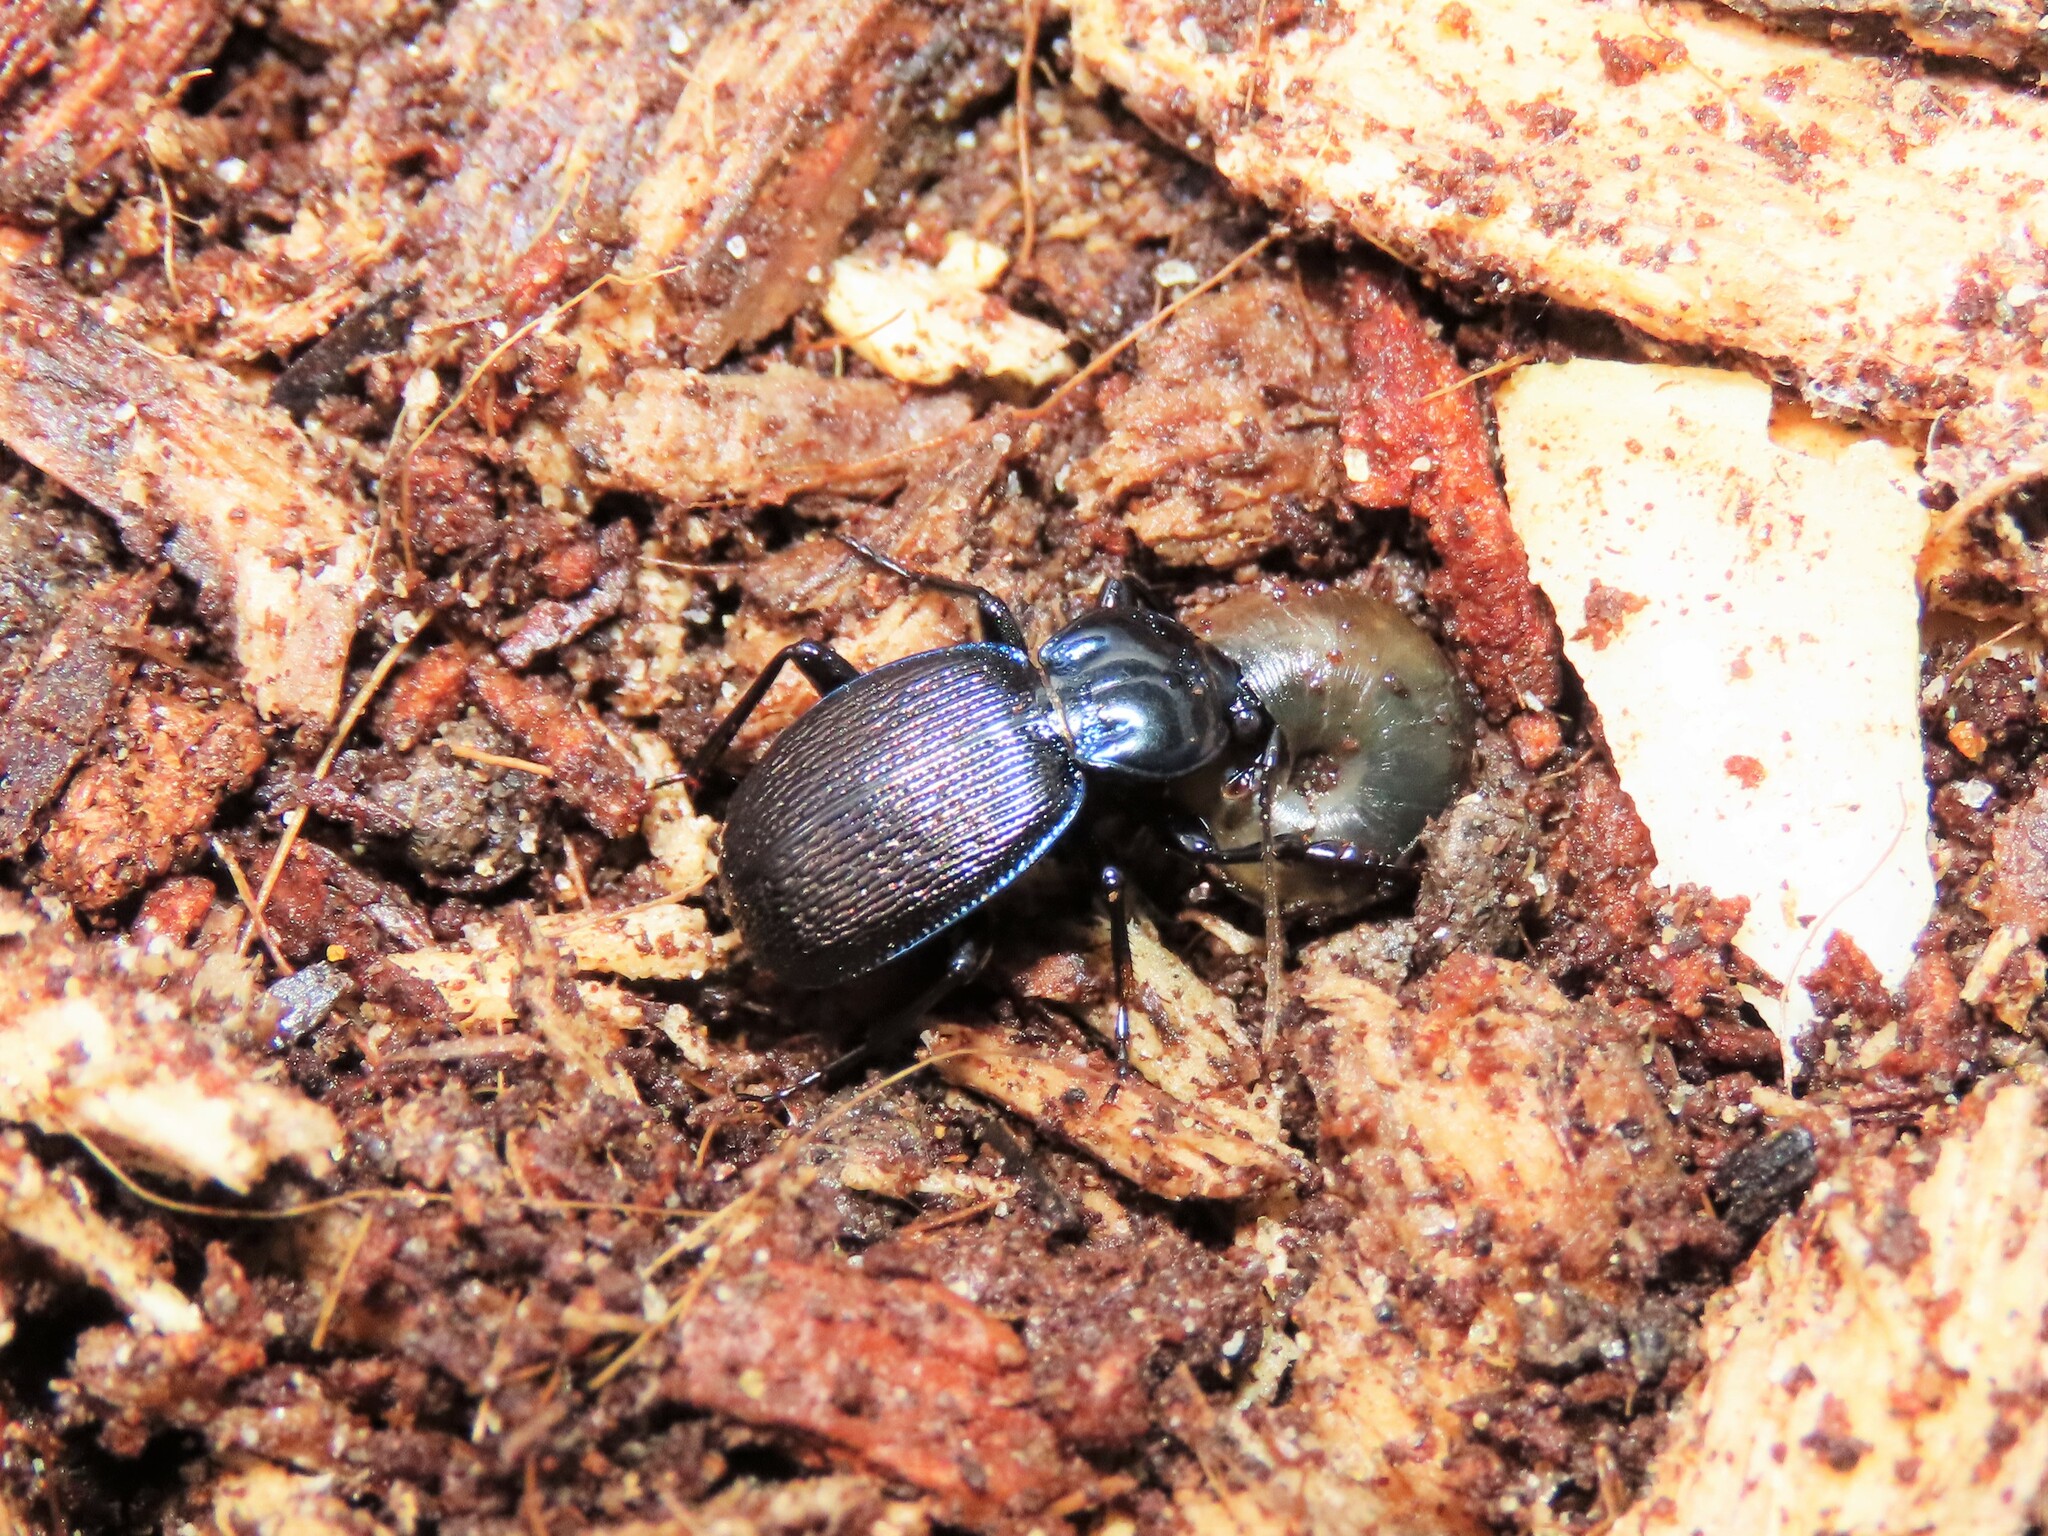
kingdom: Animalia
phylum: Arthropoda
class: Insecta
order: Coleoptera
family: Carabidae
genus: Sphaeroderus
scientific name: Sphaeroderus stenostomus
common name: Small snail-eating ground beetle
